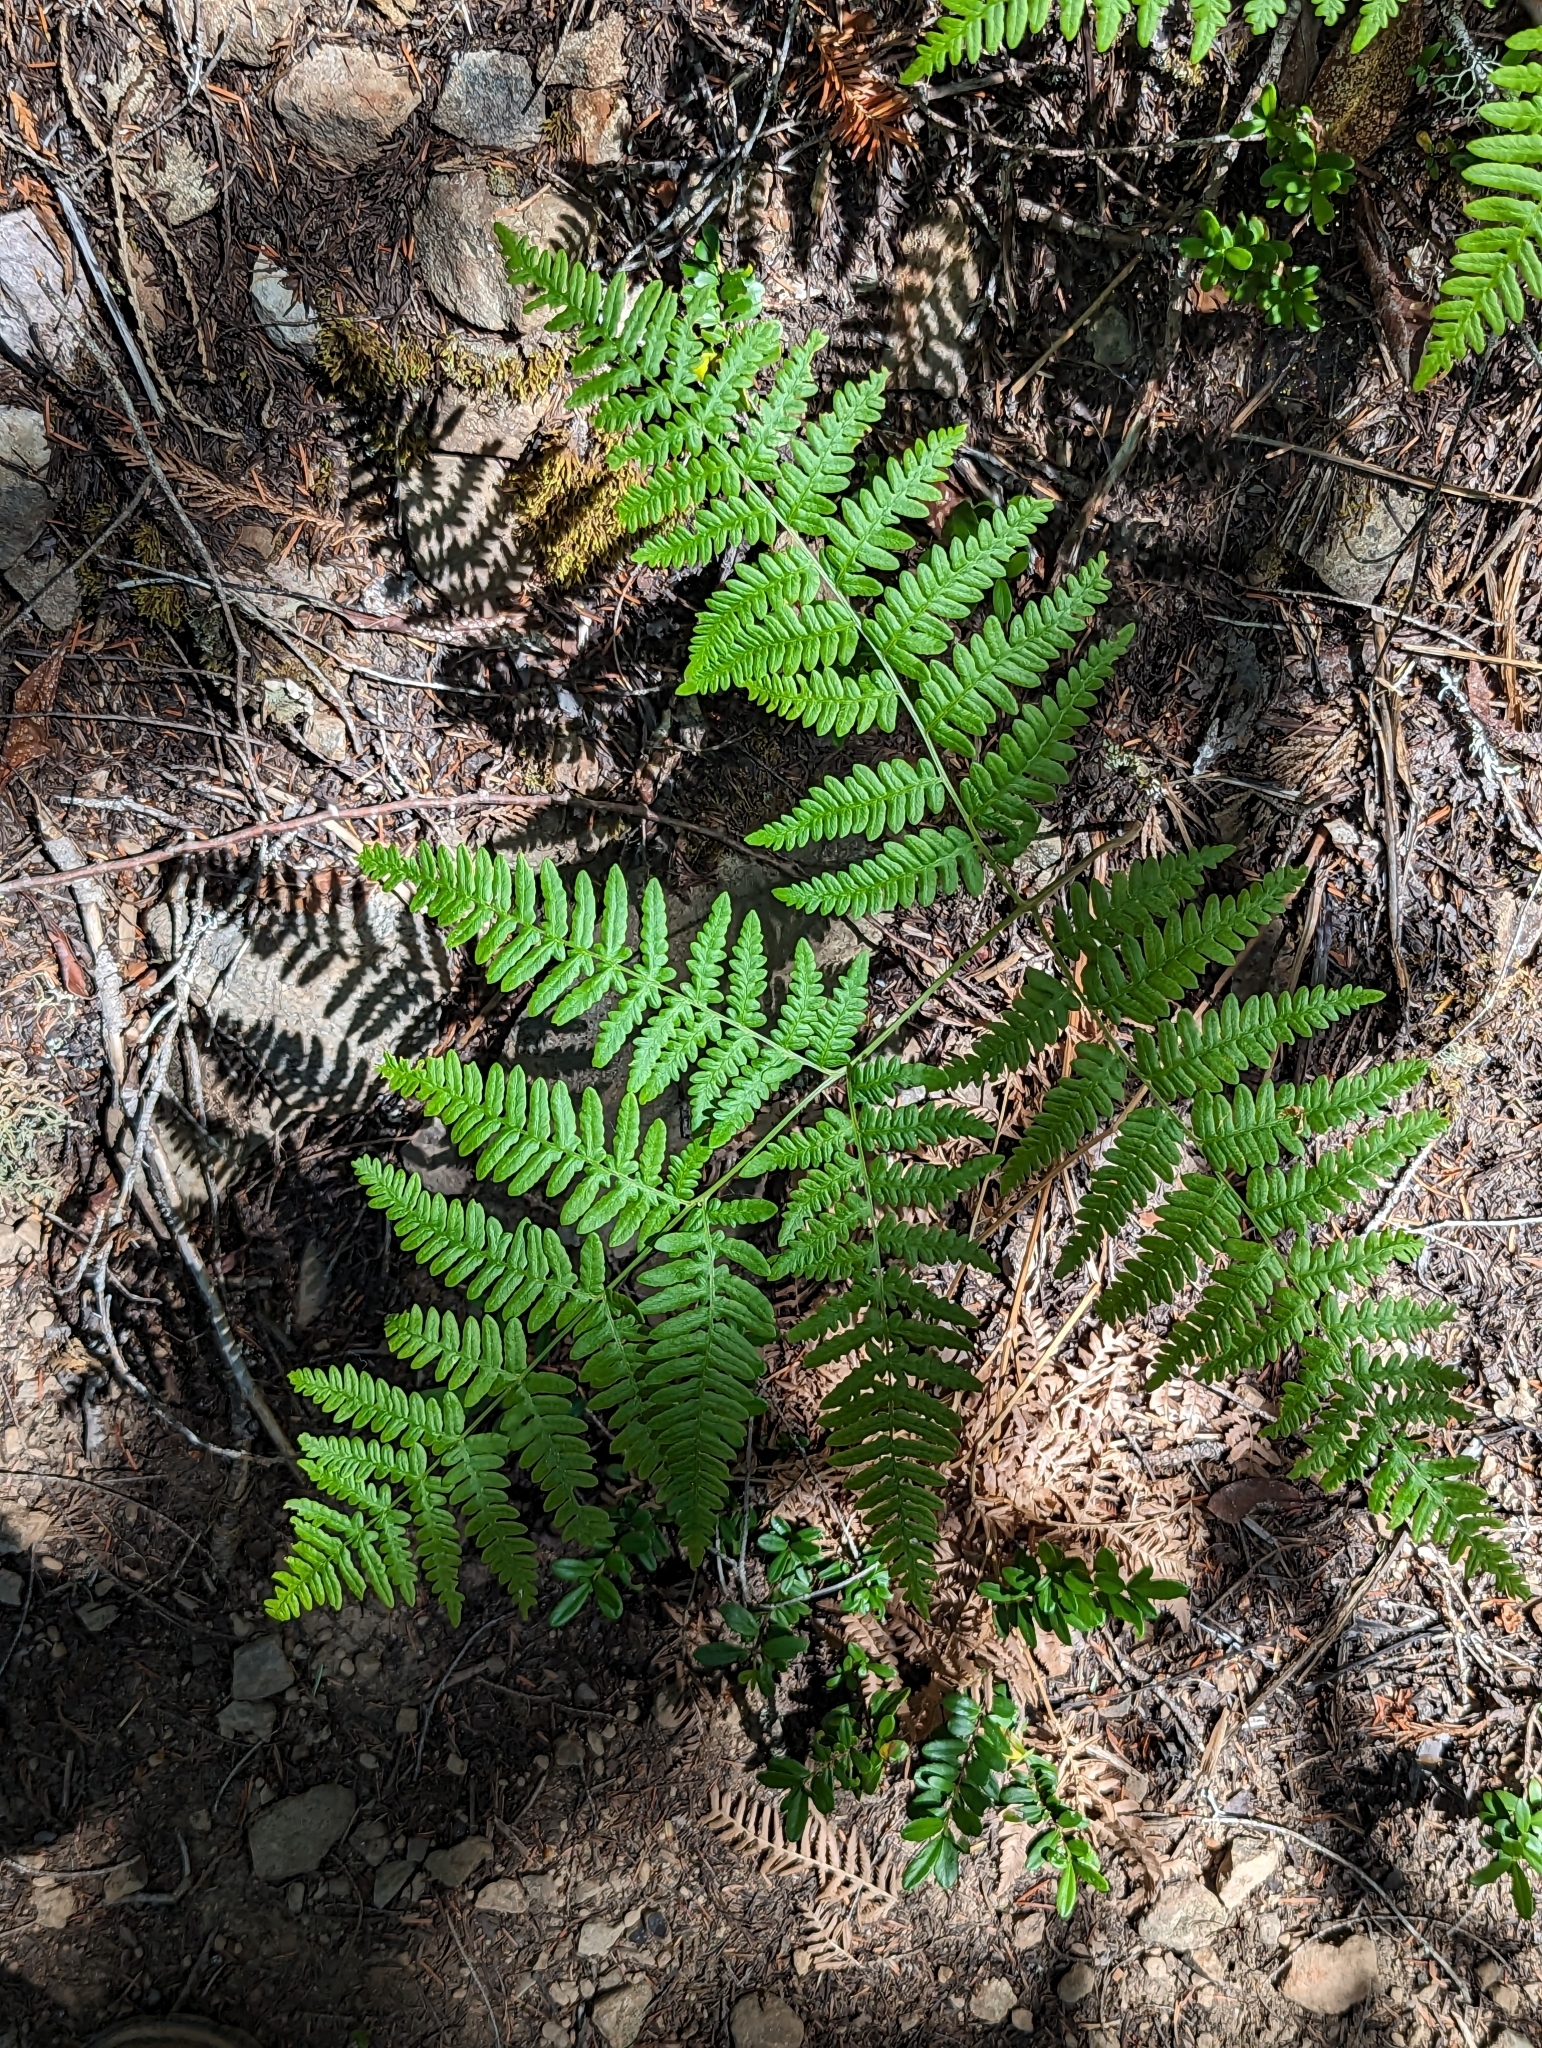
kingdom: Plantae
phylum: Tracheophyta
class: Polypodiopsida
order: Polypodiales
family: Dennstaedtiaceae
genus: Pteridium
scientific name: Pteridium aquilinum
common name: Bracken
